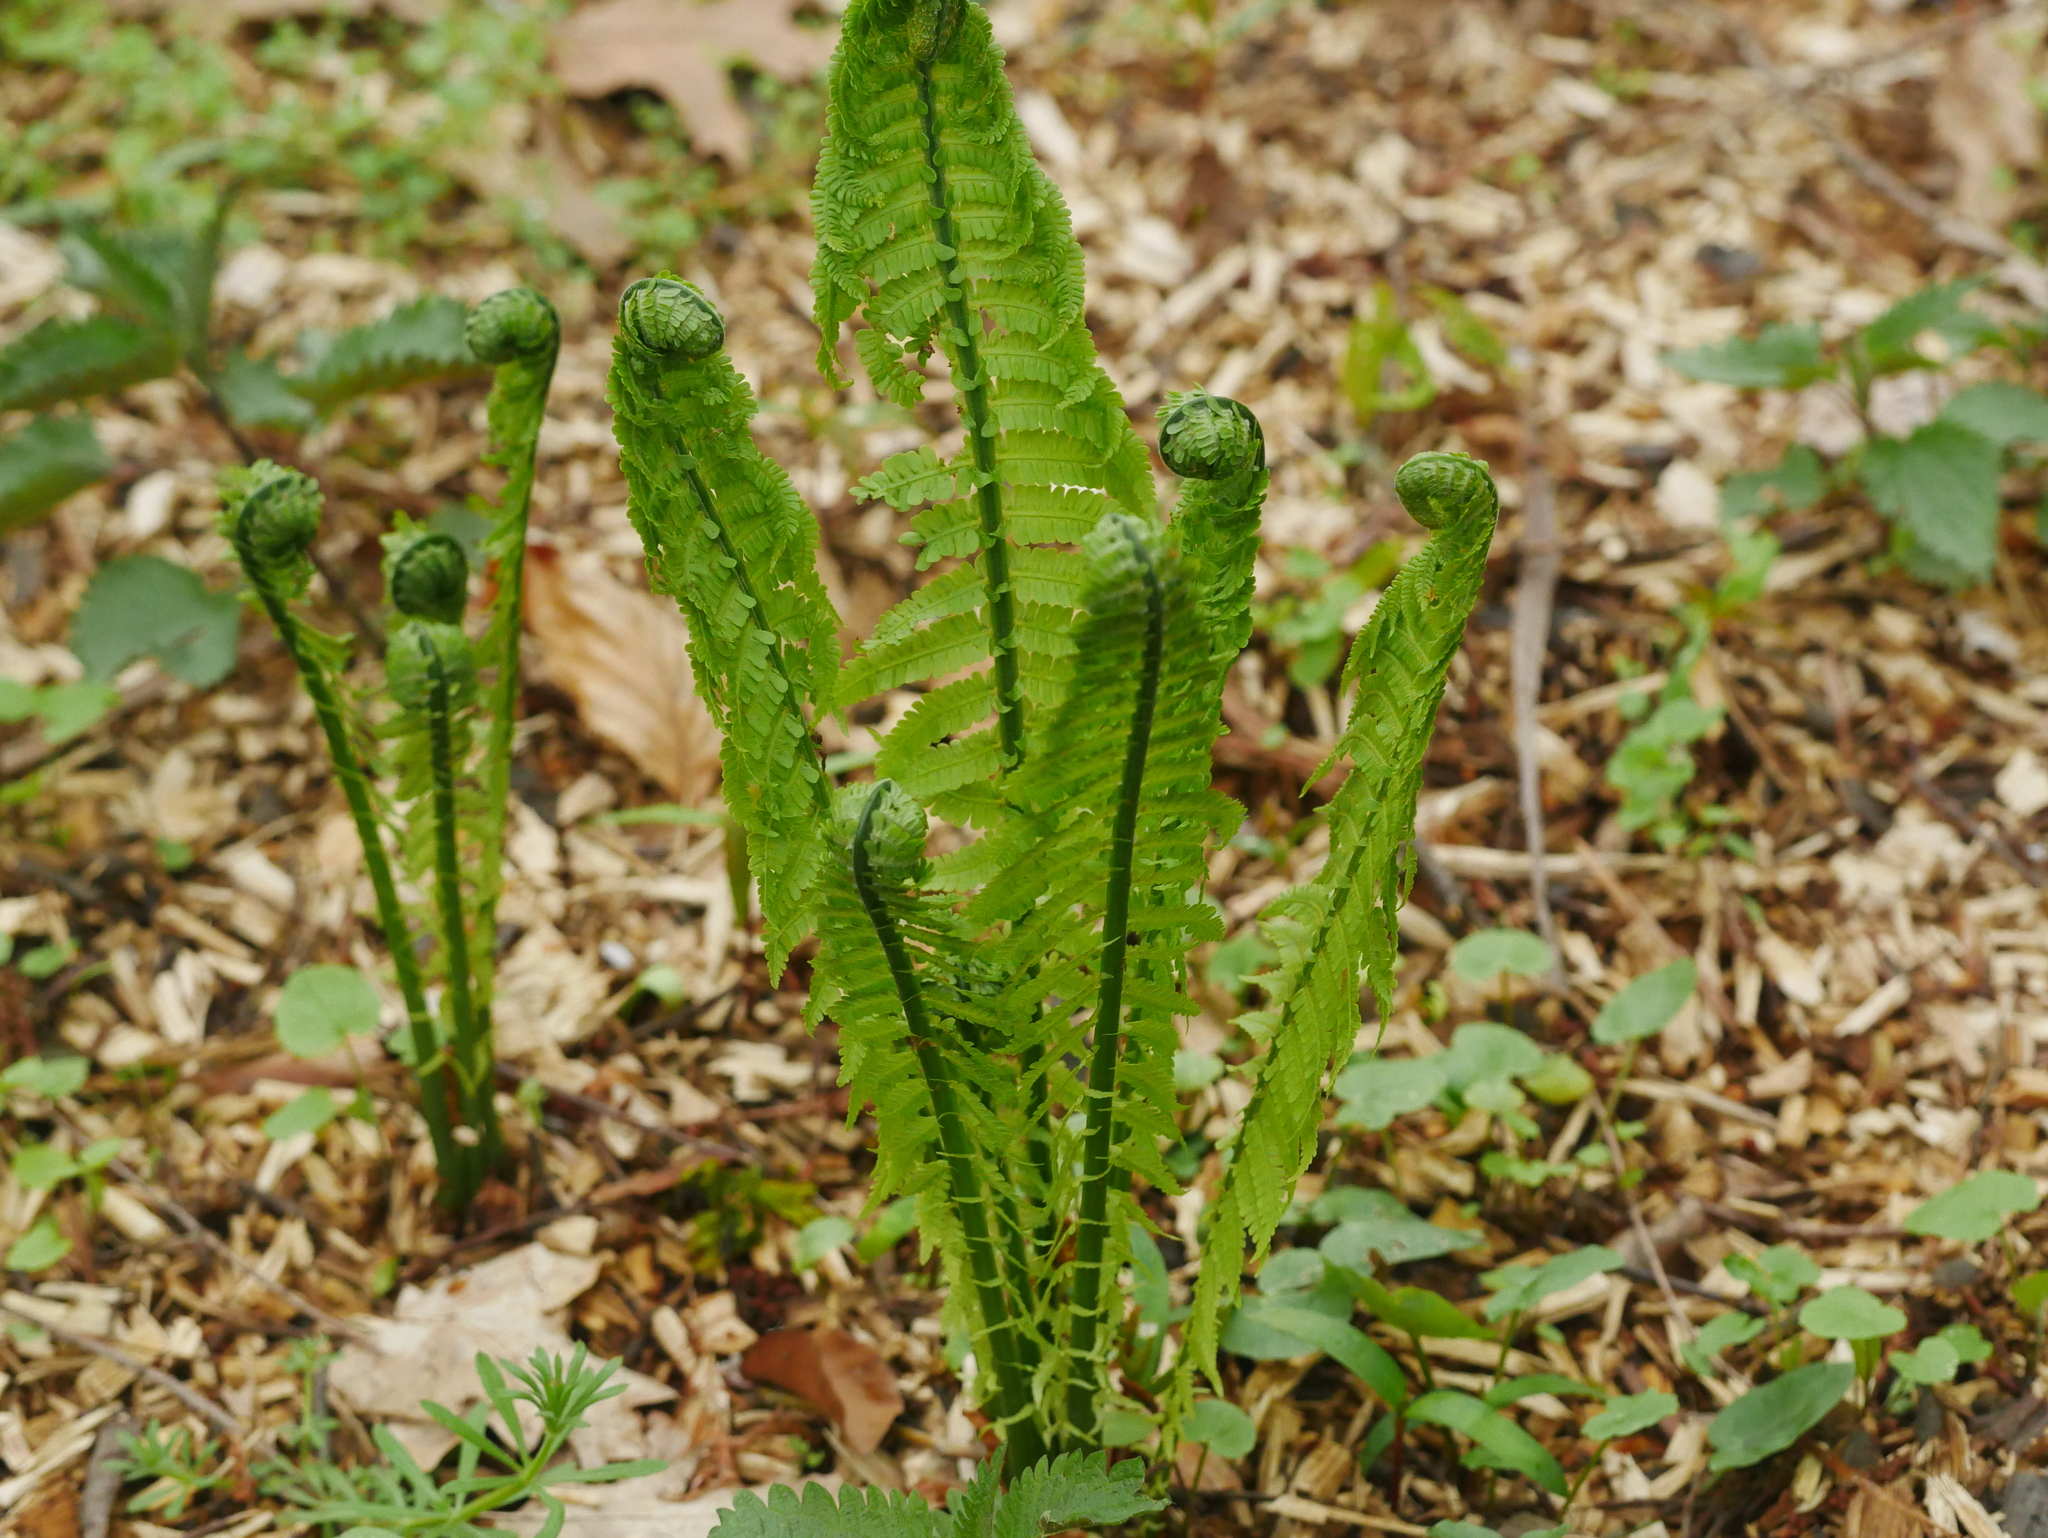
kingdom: Plantae
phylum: Tracheophyta
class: Polypodiopsida
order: Polypodiales
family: Onocleaceae
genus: Matteuccia
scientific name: Matteuccia struthiopteris
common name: Ostrich fern
